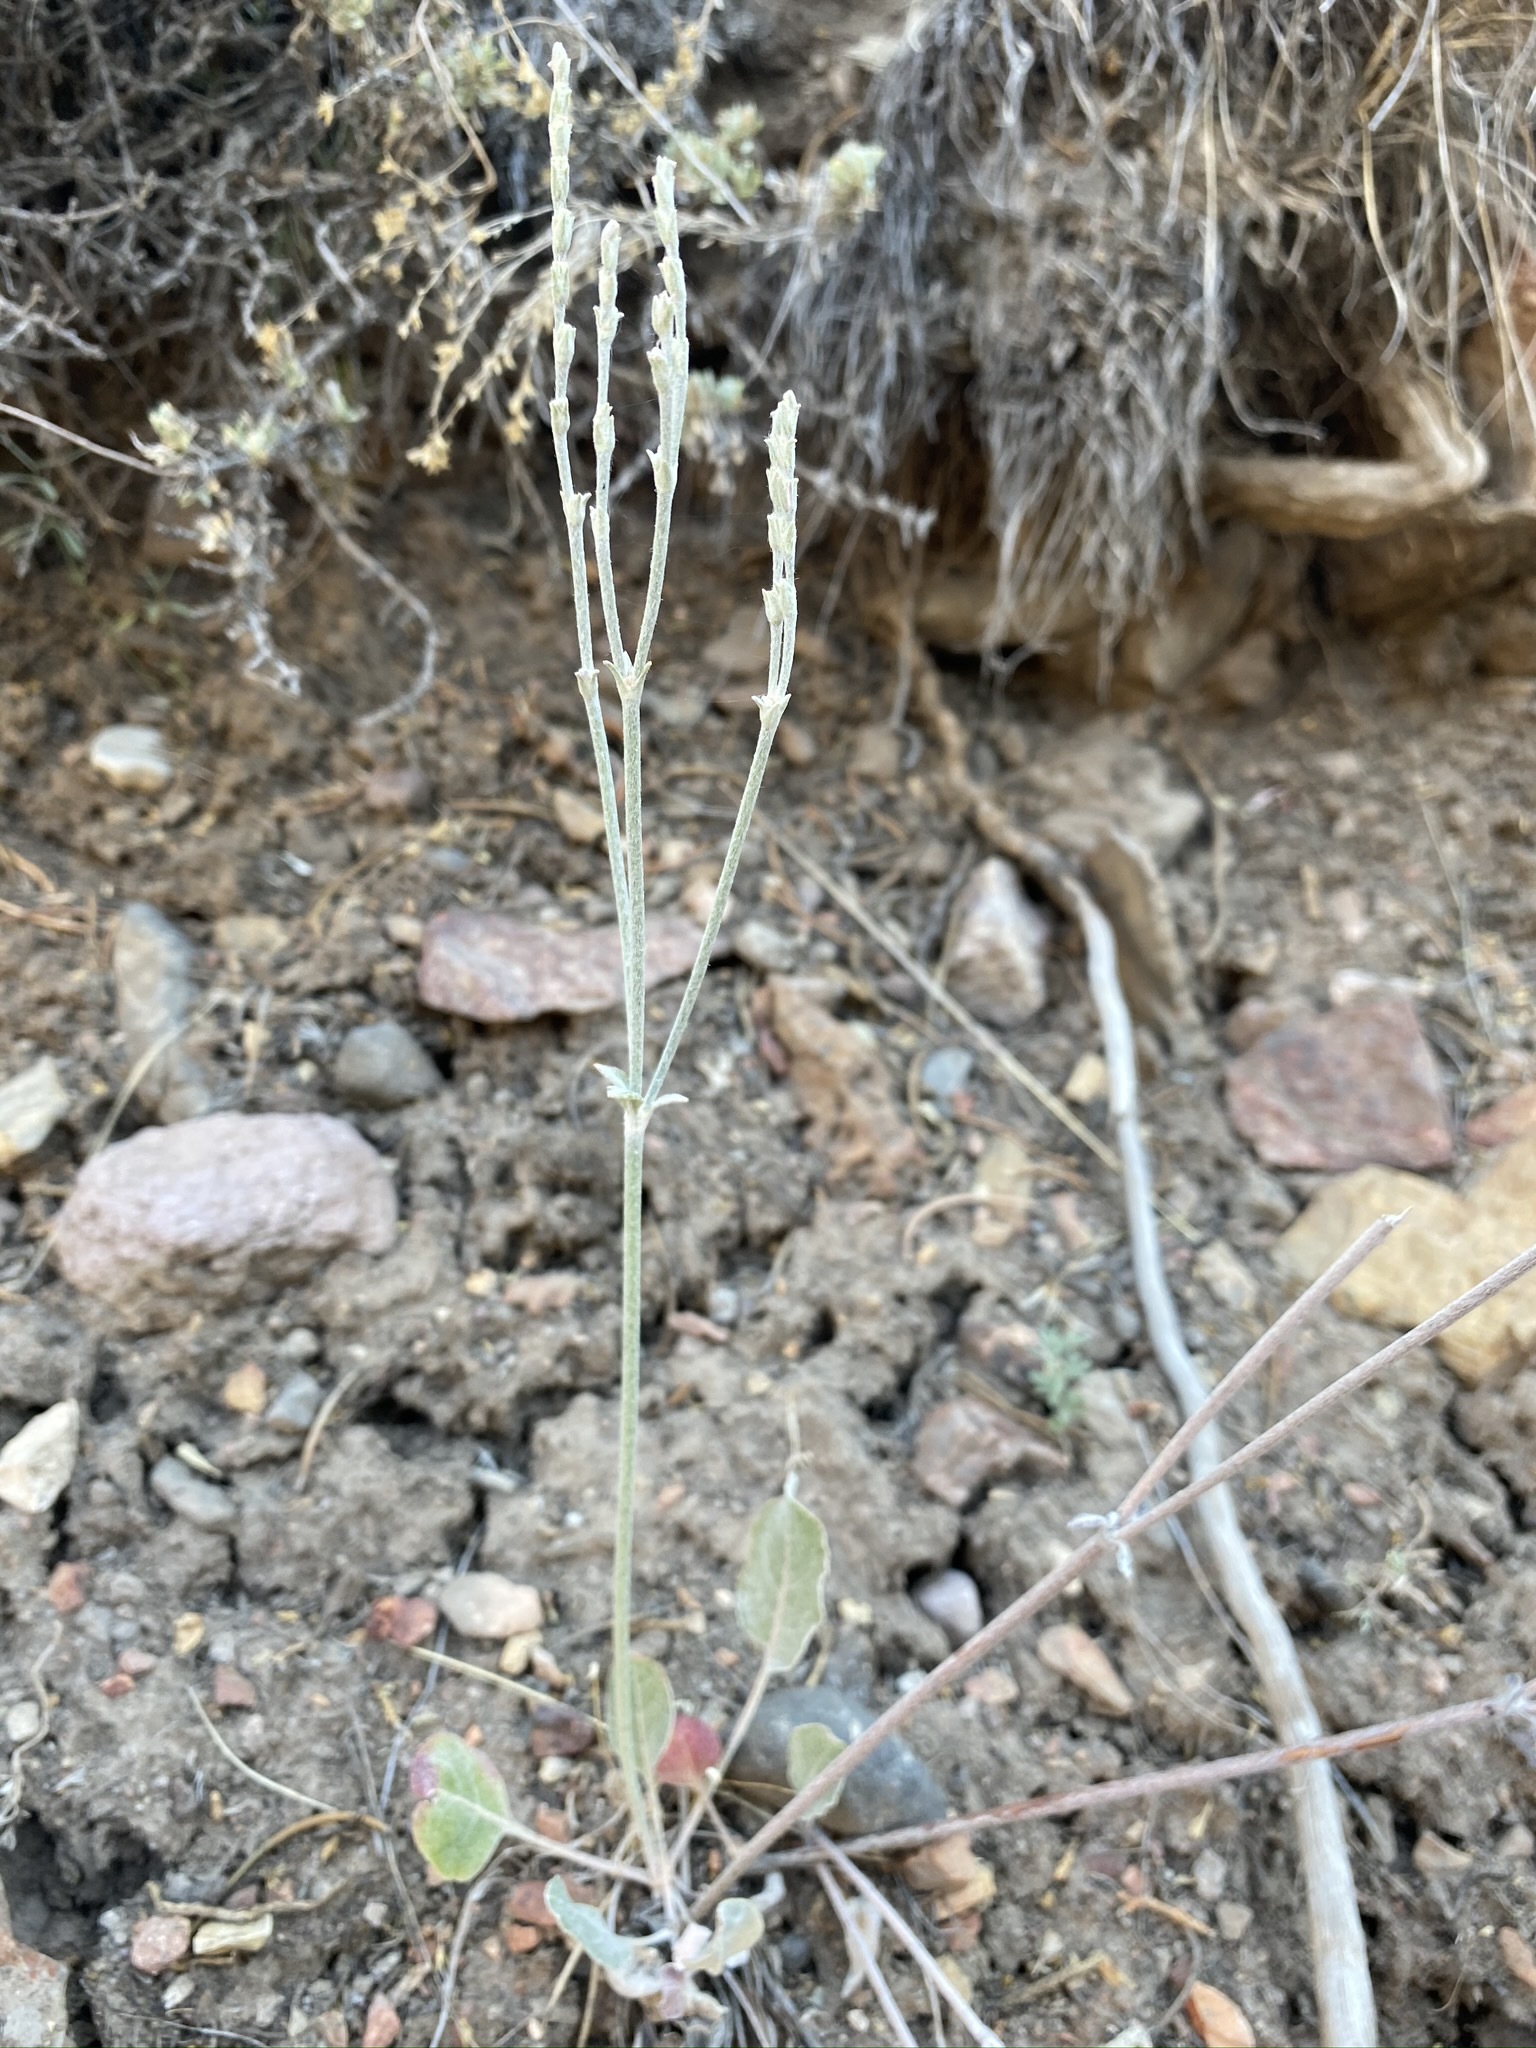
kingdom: Plantae
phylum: Tracheophyta
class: Magnoliopsida
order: Caryophyllales
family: Polygonaceae
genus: Eriogonum
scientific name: Eriogonum racemosum
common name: Redroot wild buckwheat
